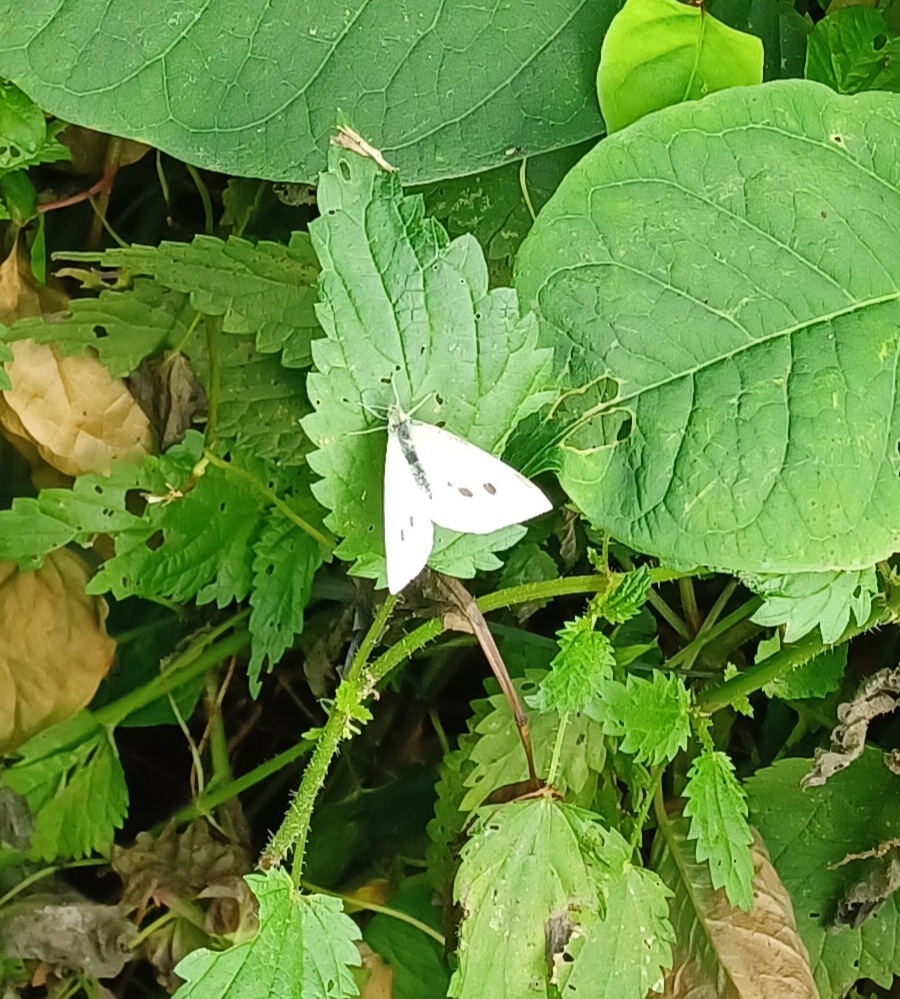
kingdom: Animalia
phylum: Arthropoda
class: Insecta
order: Lepidoptera
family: Pieridae
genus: Pieris
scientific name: Pieris rapae
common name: Small white
